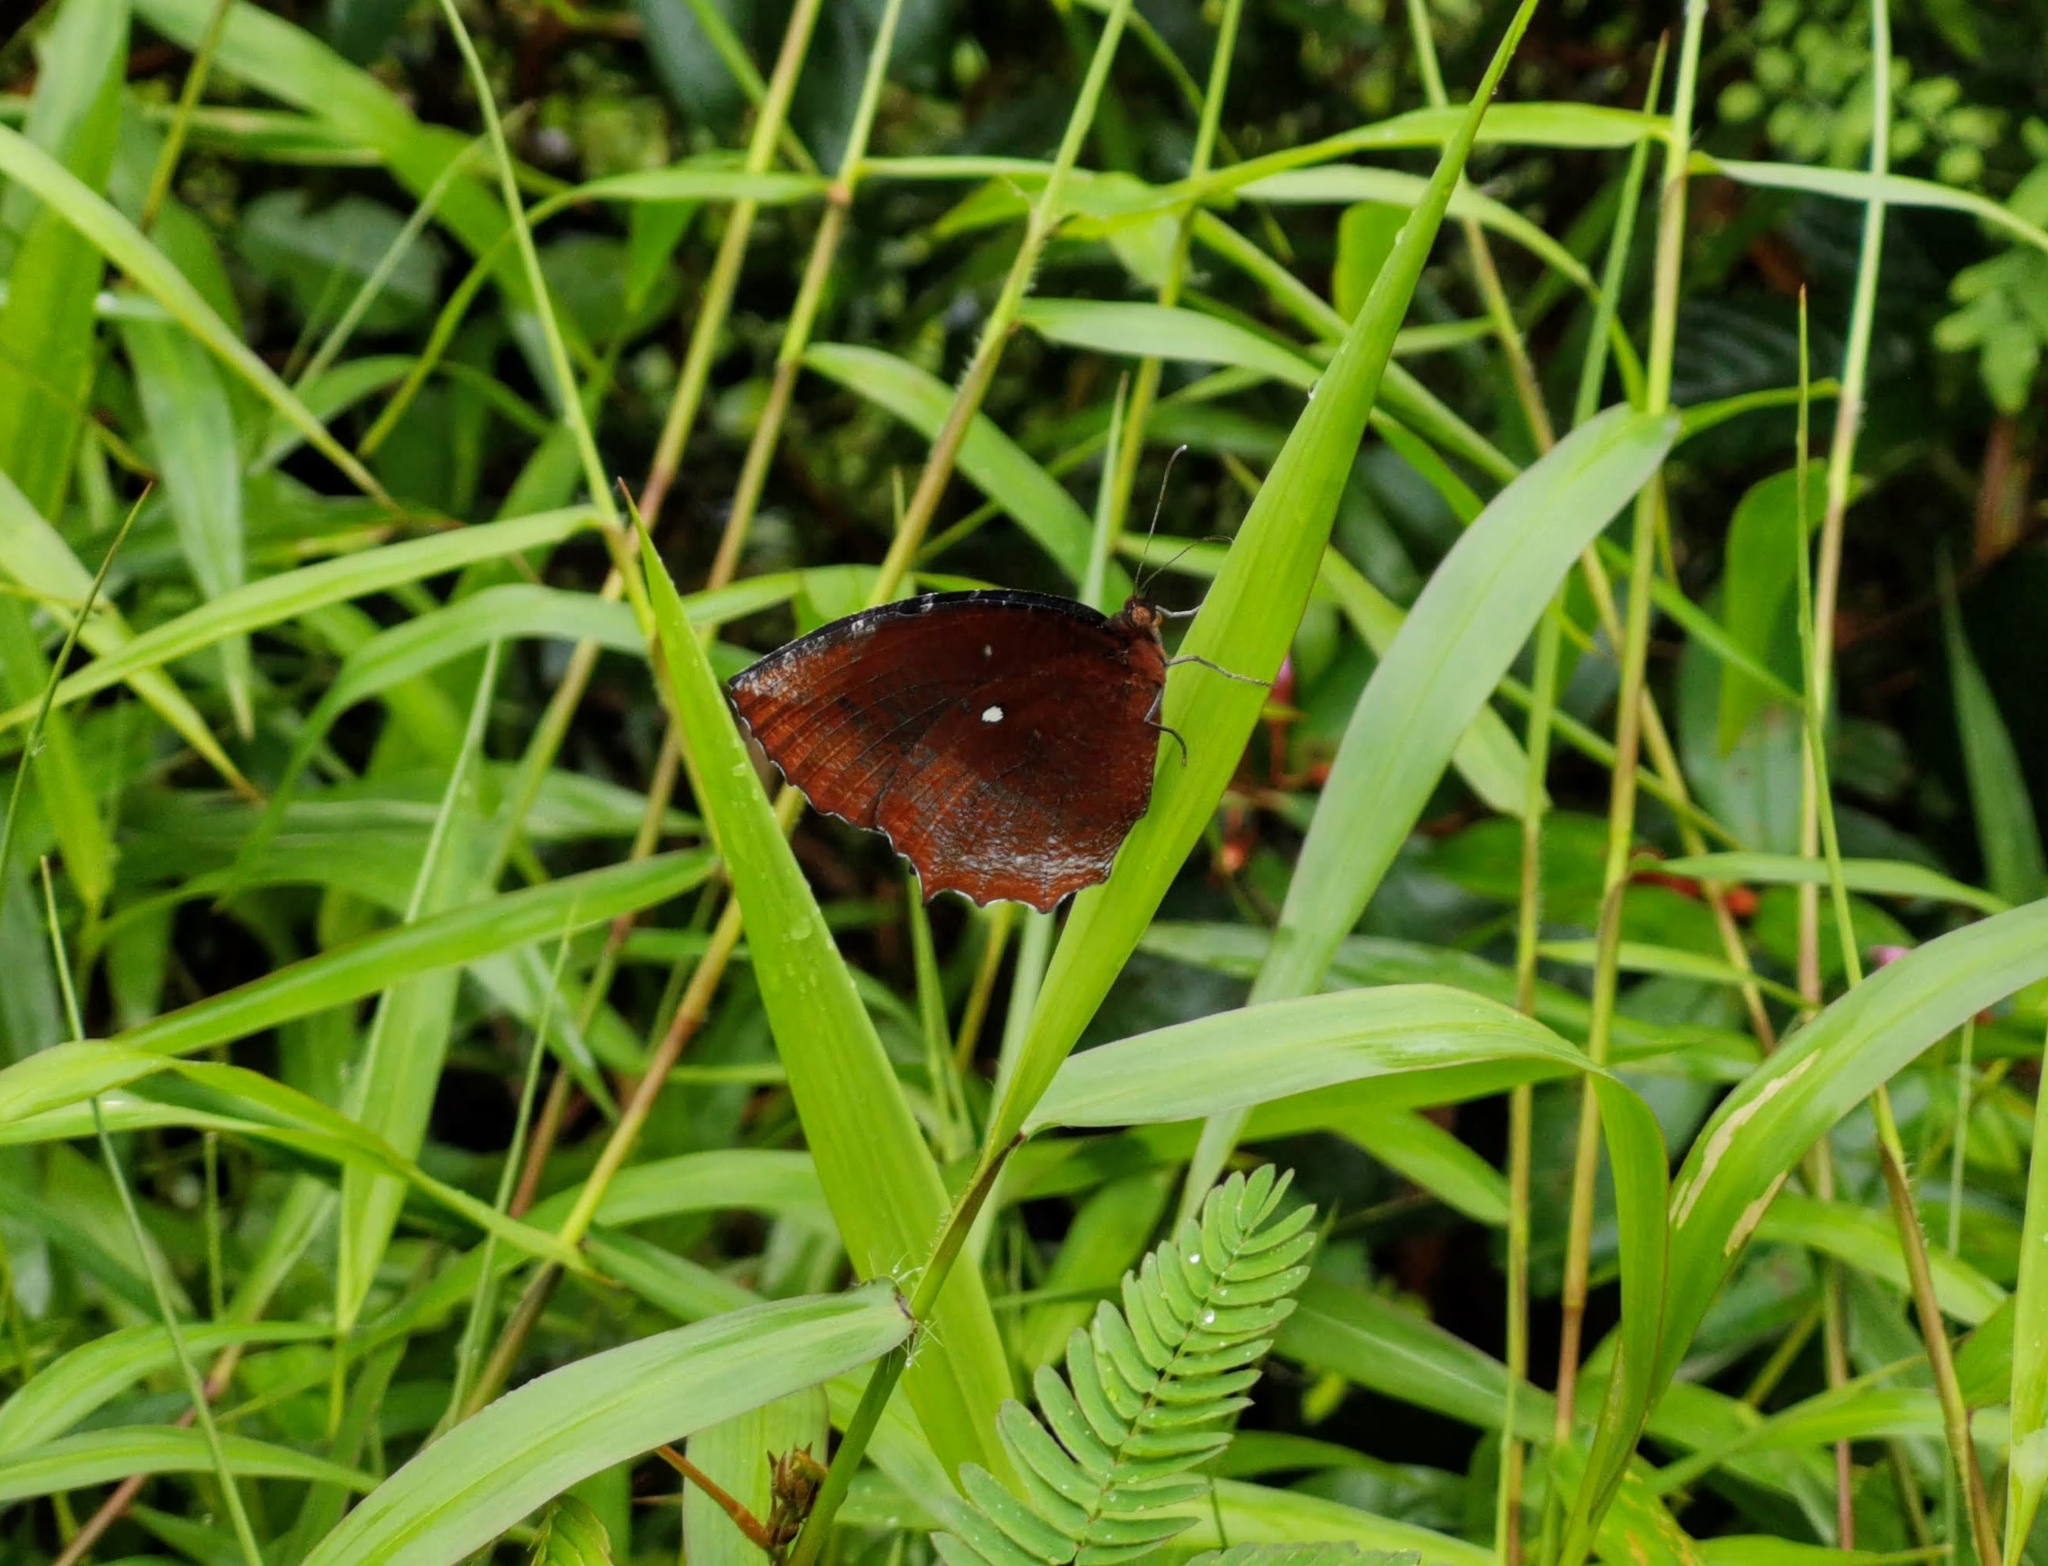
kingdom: Animalia
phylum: Arthropoda
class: Insecta
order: Lepidoptera
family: Nymphalidae
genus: Elymnias
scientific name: Elymnias hypermnestra
